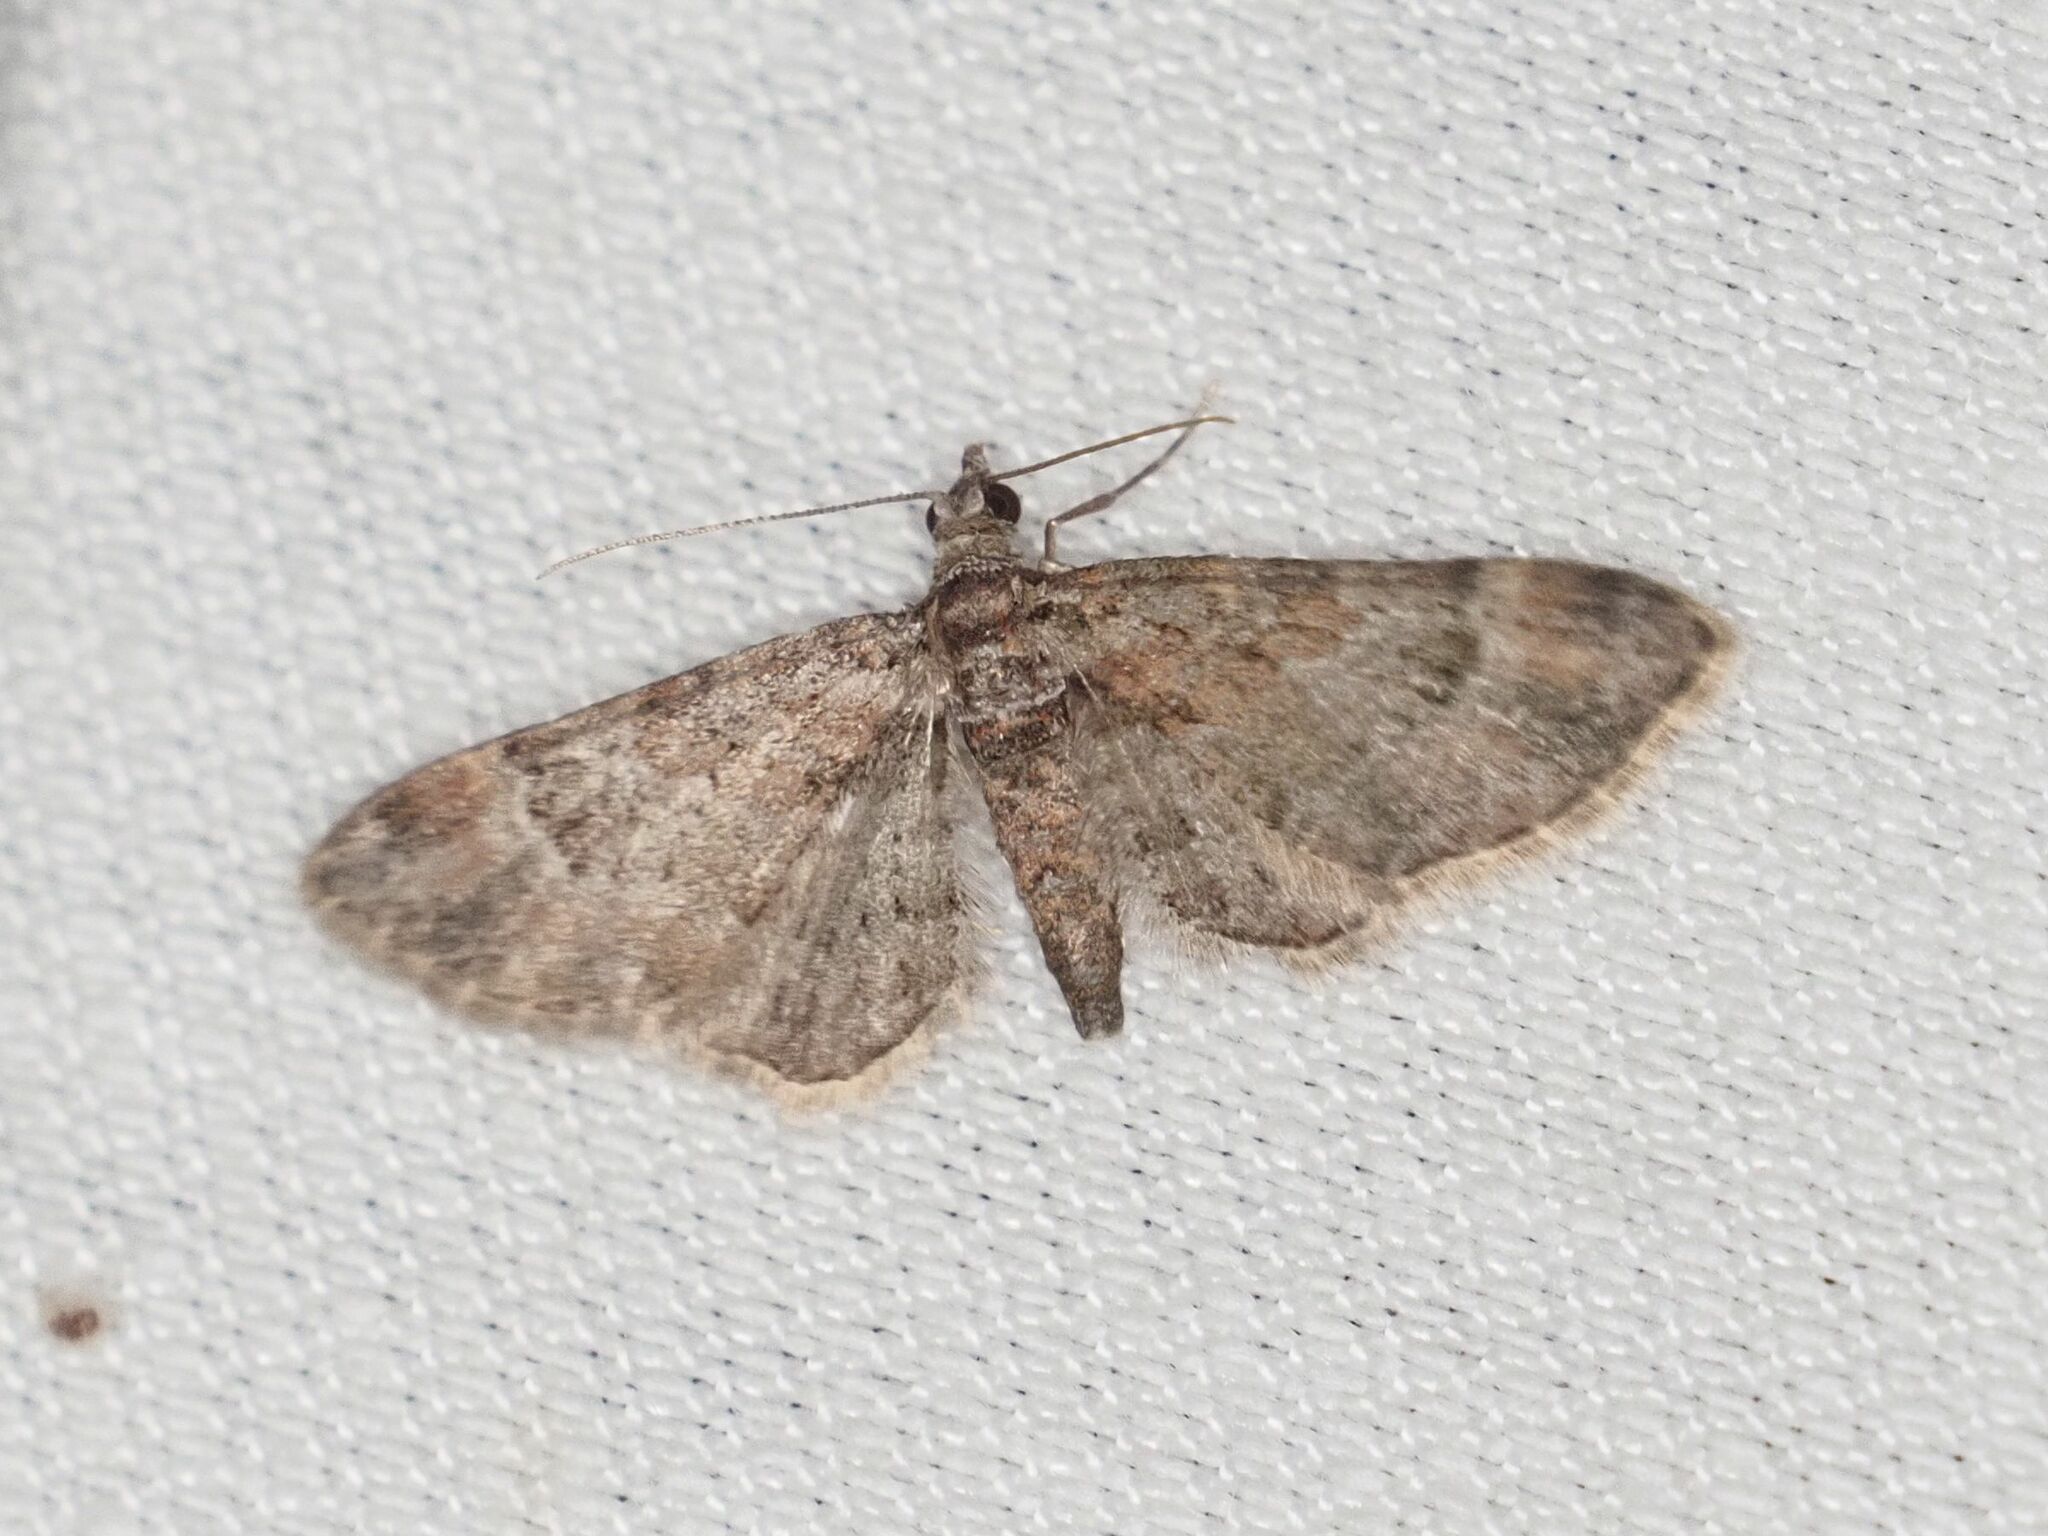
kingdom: Animalia
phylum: Arthropoda
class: Insecta
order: Lepidoptera
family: Geometridae
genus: Gymnoscelis
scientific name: Gymnoscelis rufifasciata
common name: Double-striped pug
